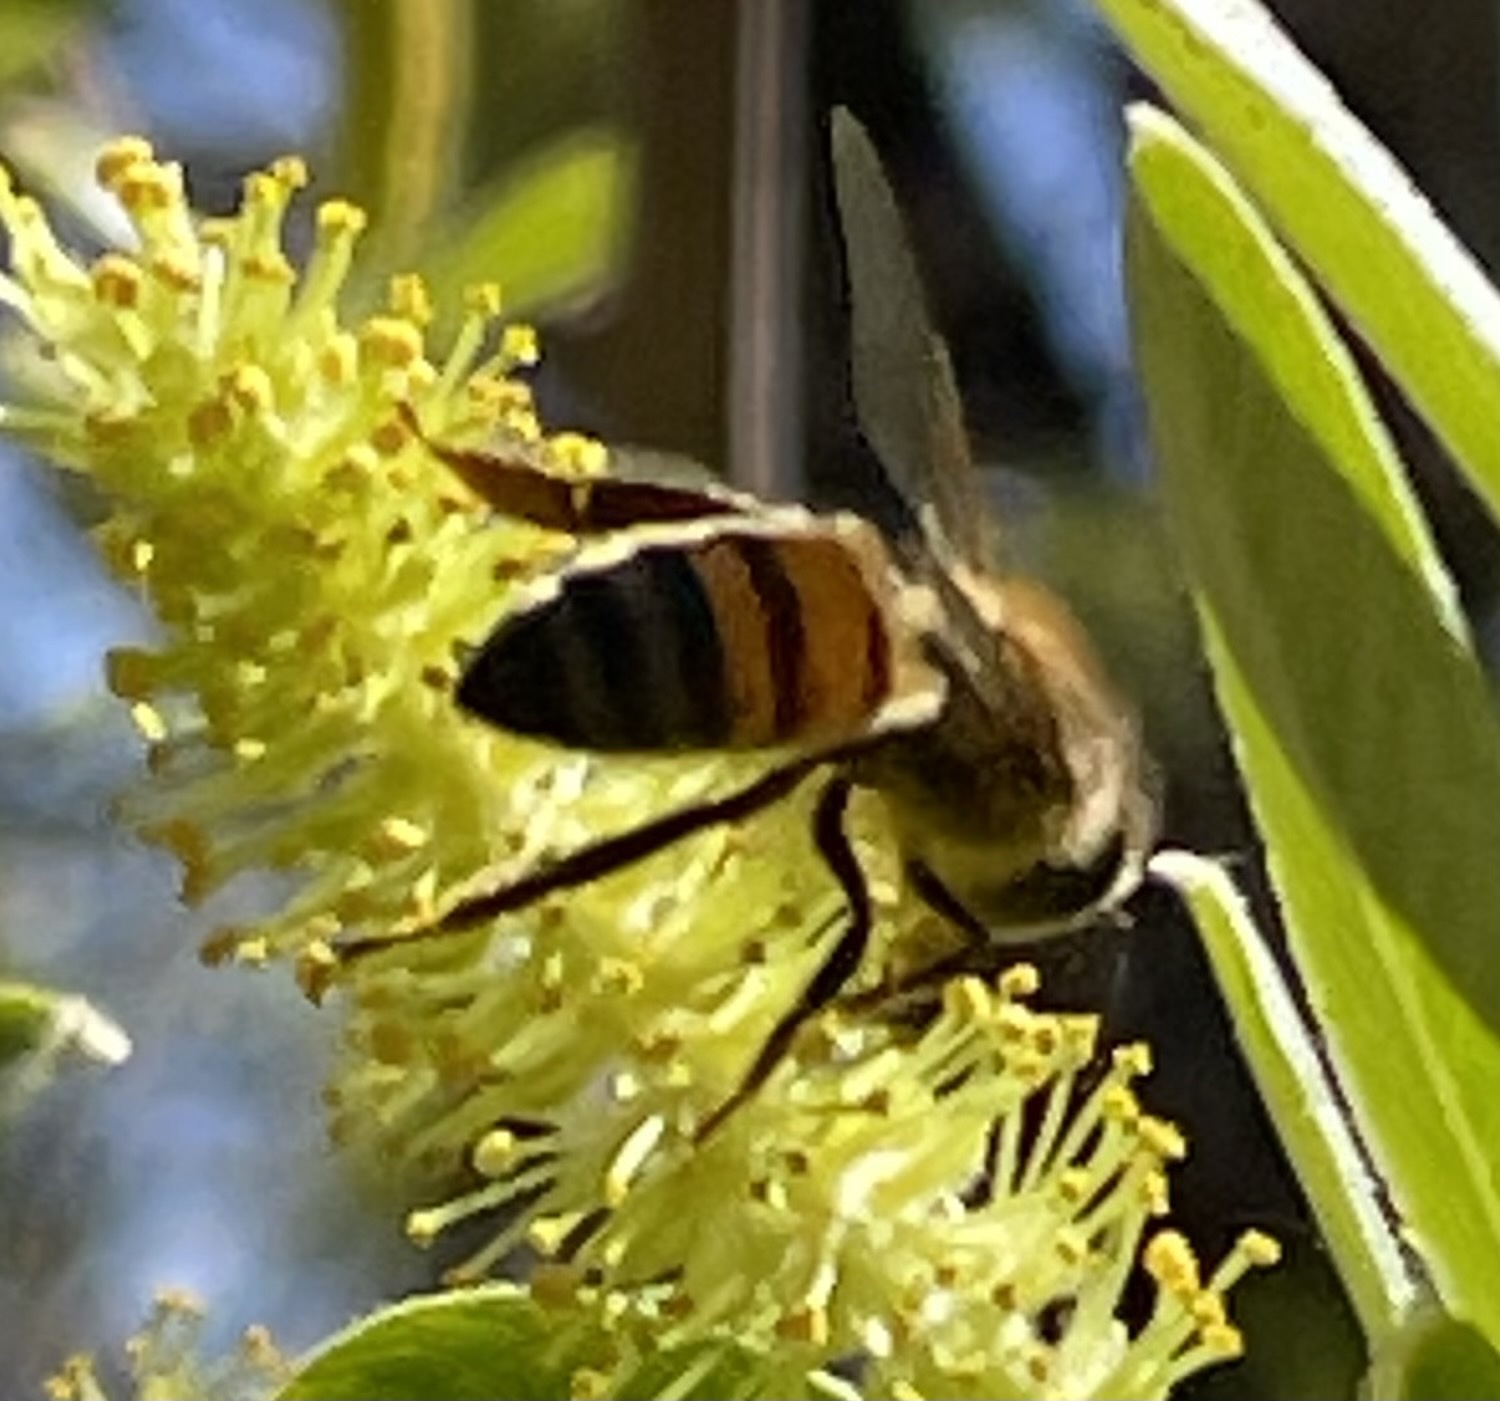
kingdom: Animalia
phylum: Arthropoda
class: Insecta
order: Hymenoptera
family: Apidae
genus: Apis
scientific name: Apis mellifera
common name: Honey bee
